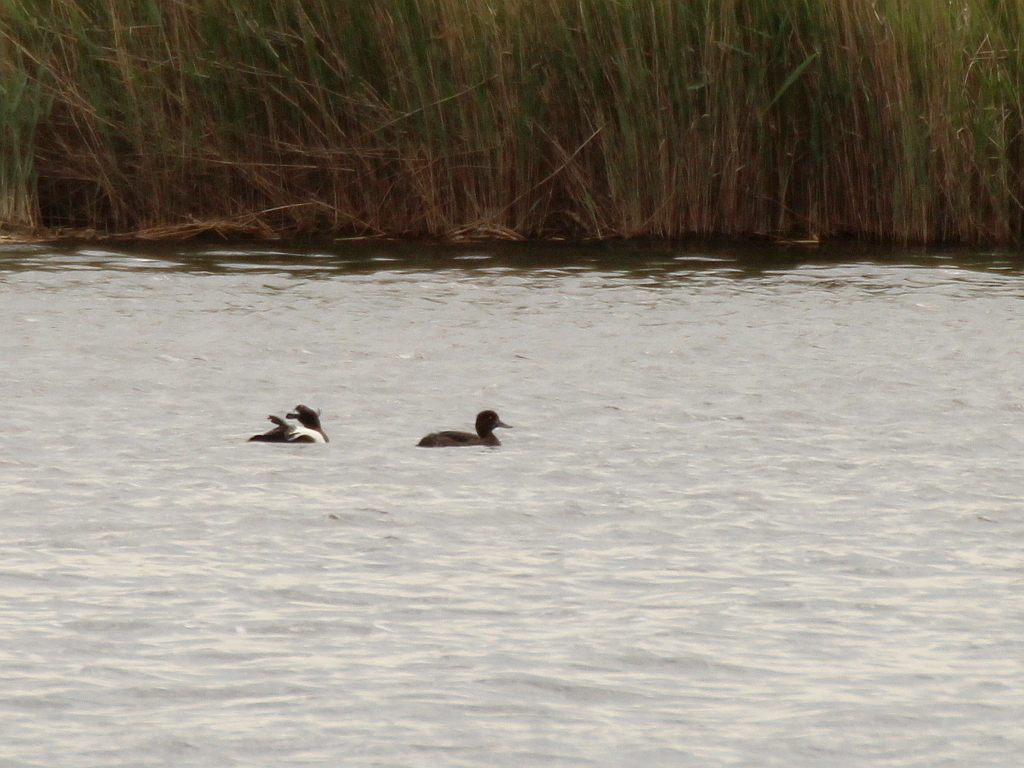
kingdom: Animalia
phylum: Chordata
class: Aves
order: Anseriformes
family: Anatidae
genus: Aythya
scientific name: Aythya fuligula
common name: Tufted duck
